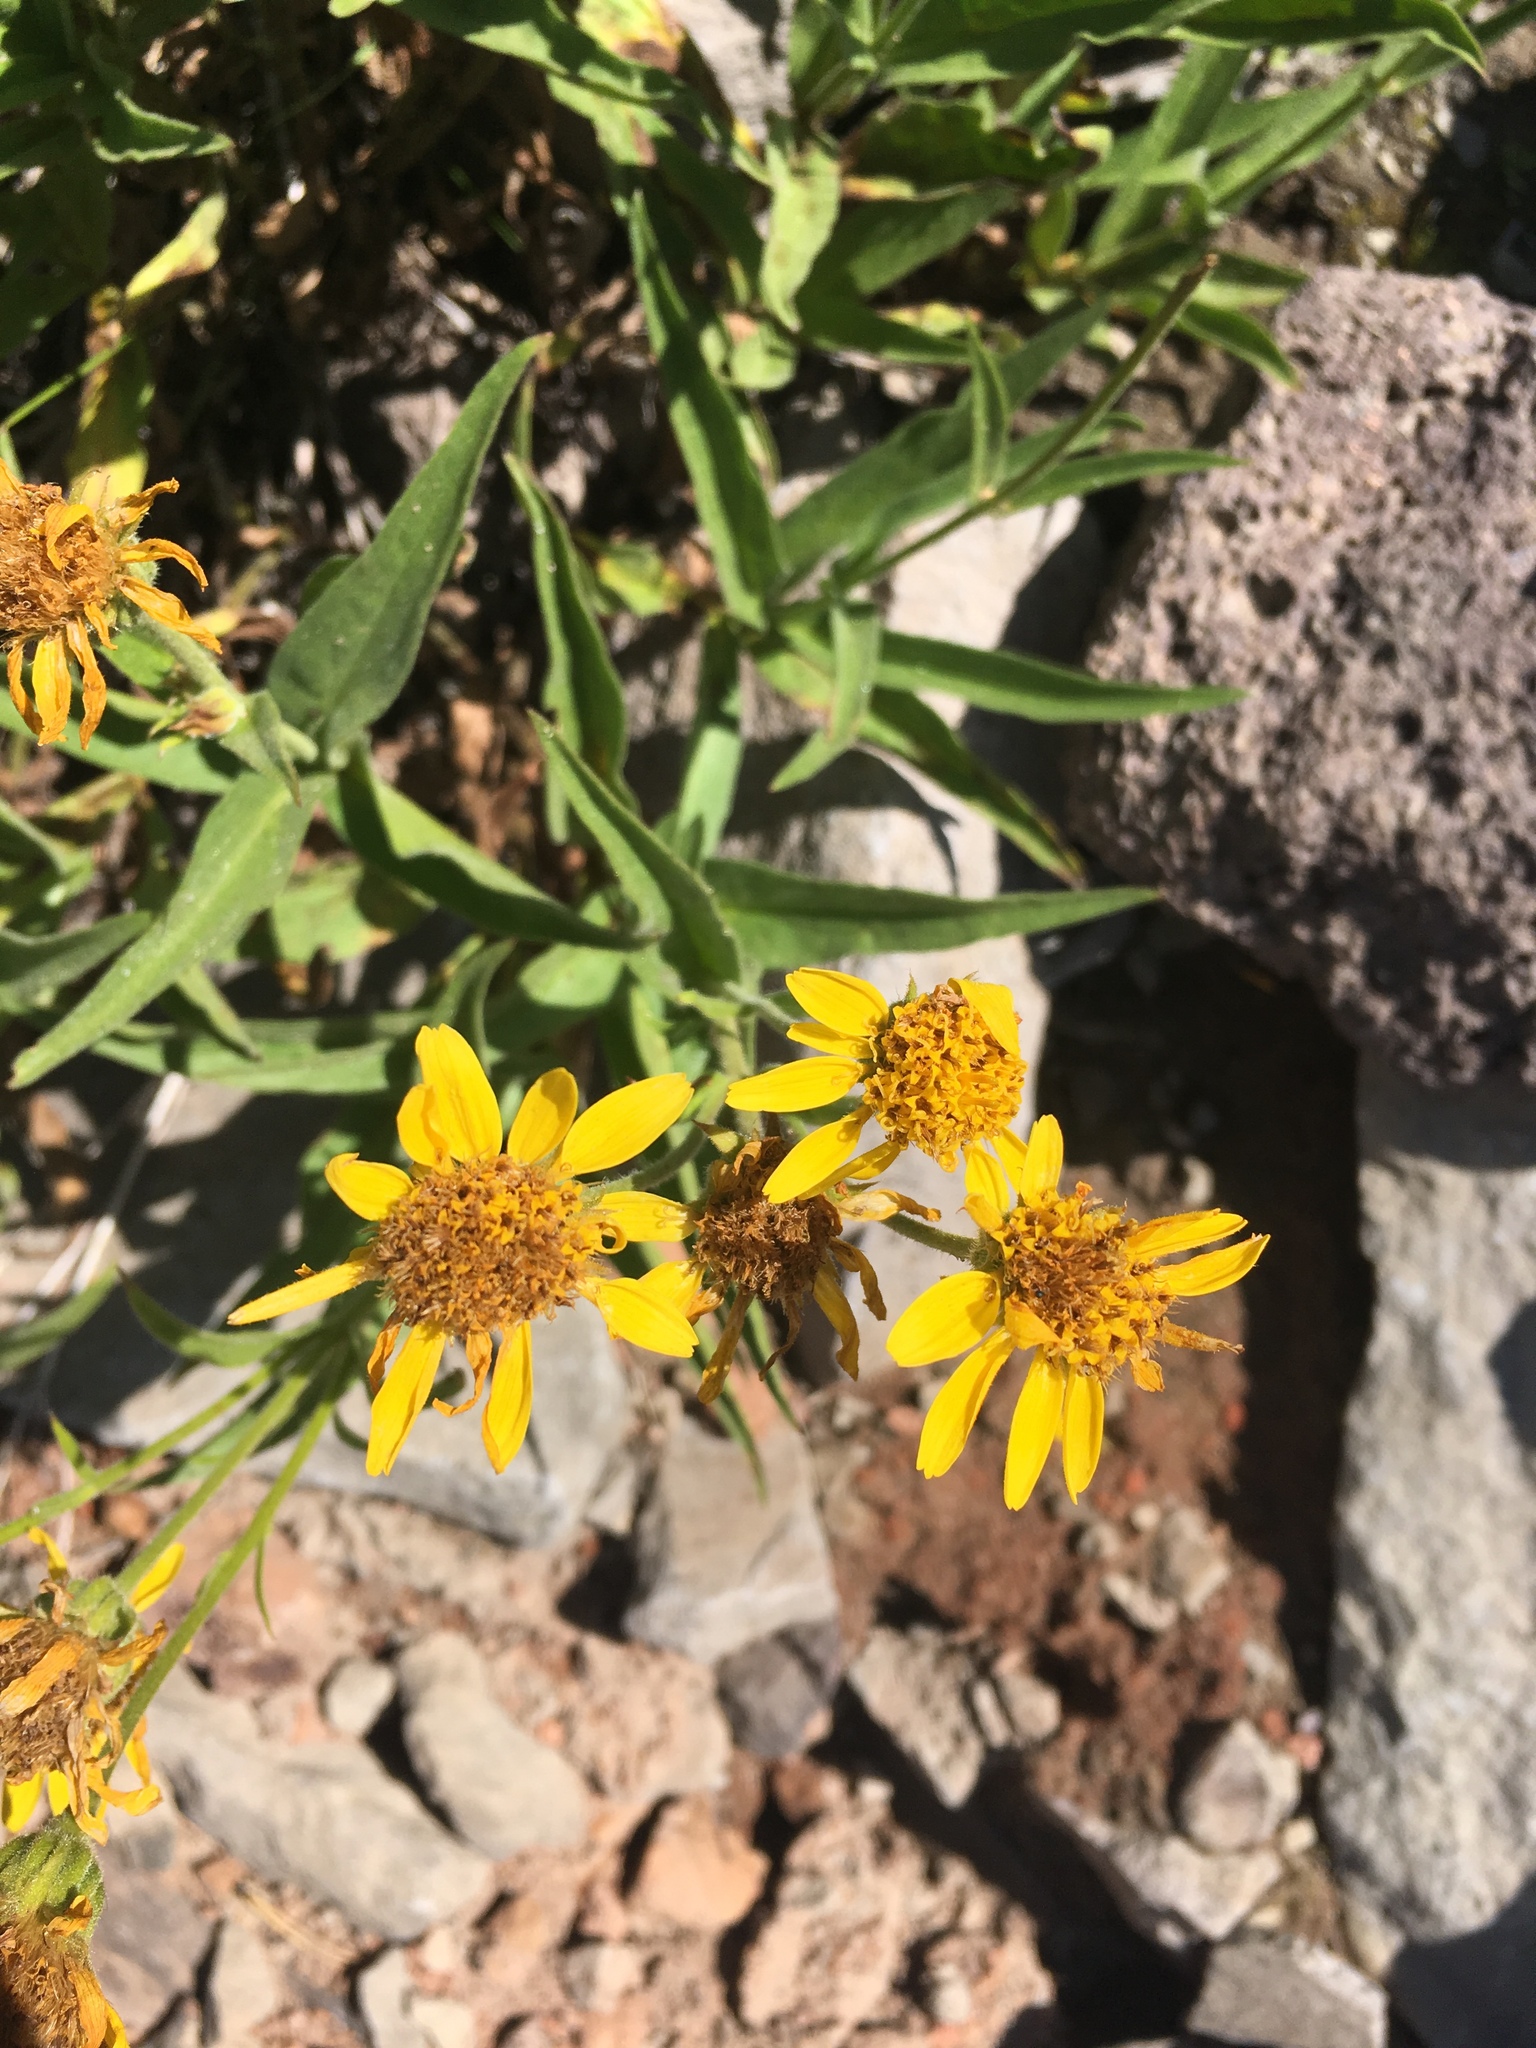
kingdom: Plantae
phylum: Tracheophyta
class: Magnoliopsida
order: Asterales
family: Asteraceae
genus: Arnica
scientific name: Arnica longifolia
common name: Spear-leaf arnica
